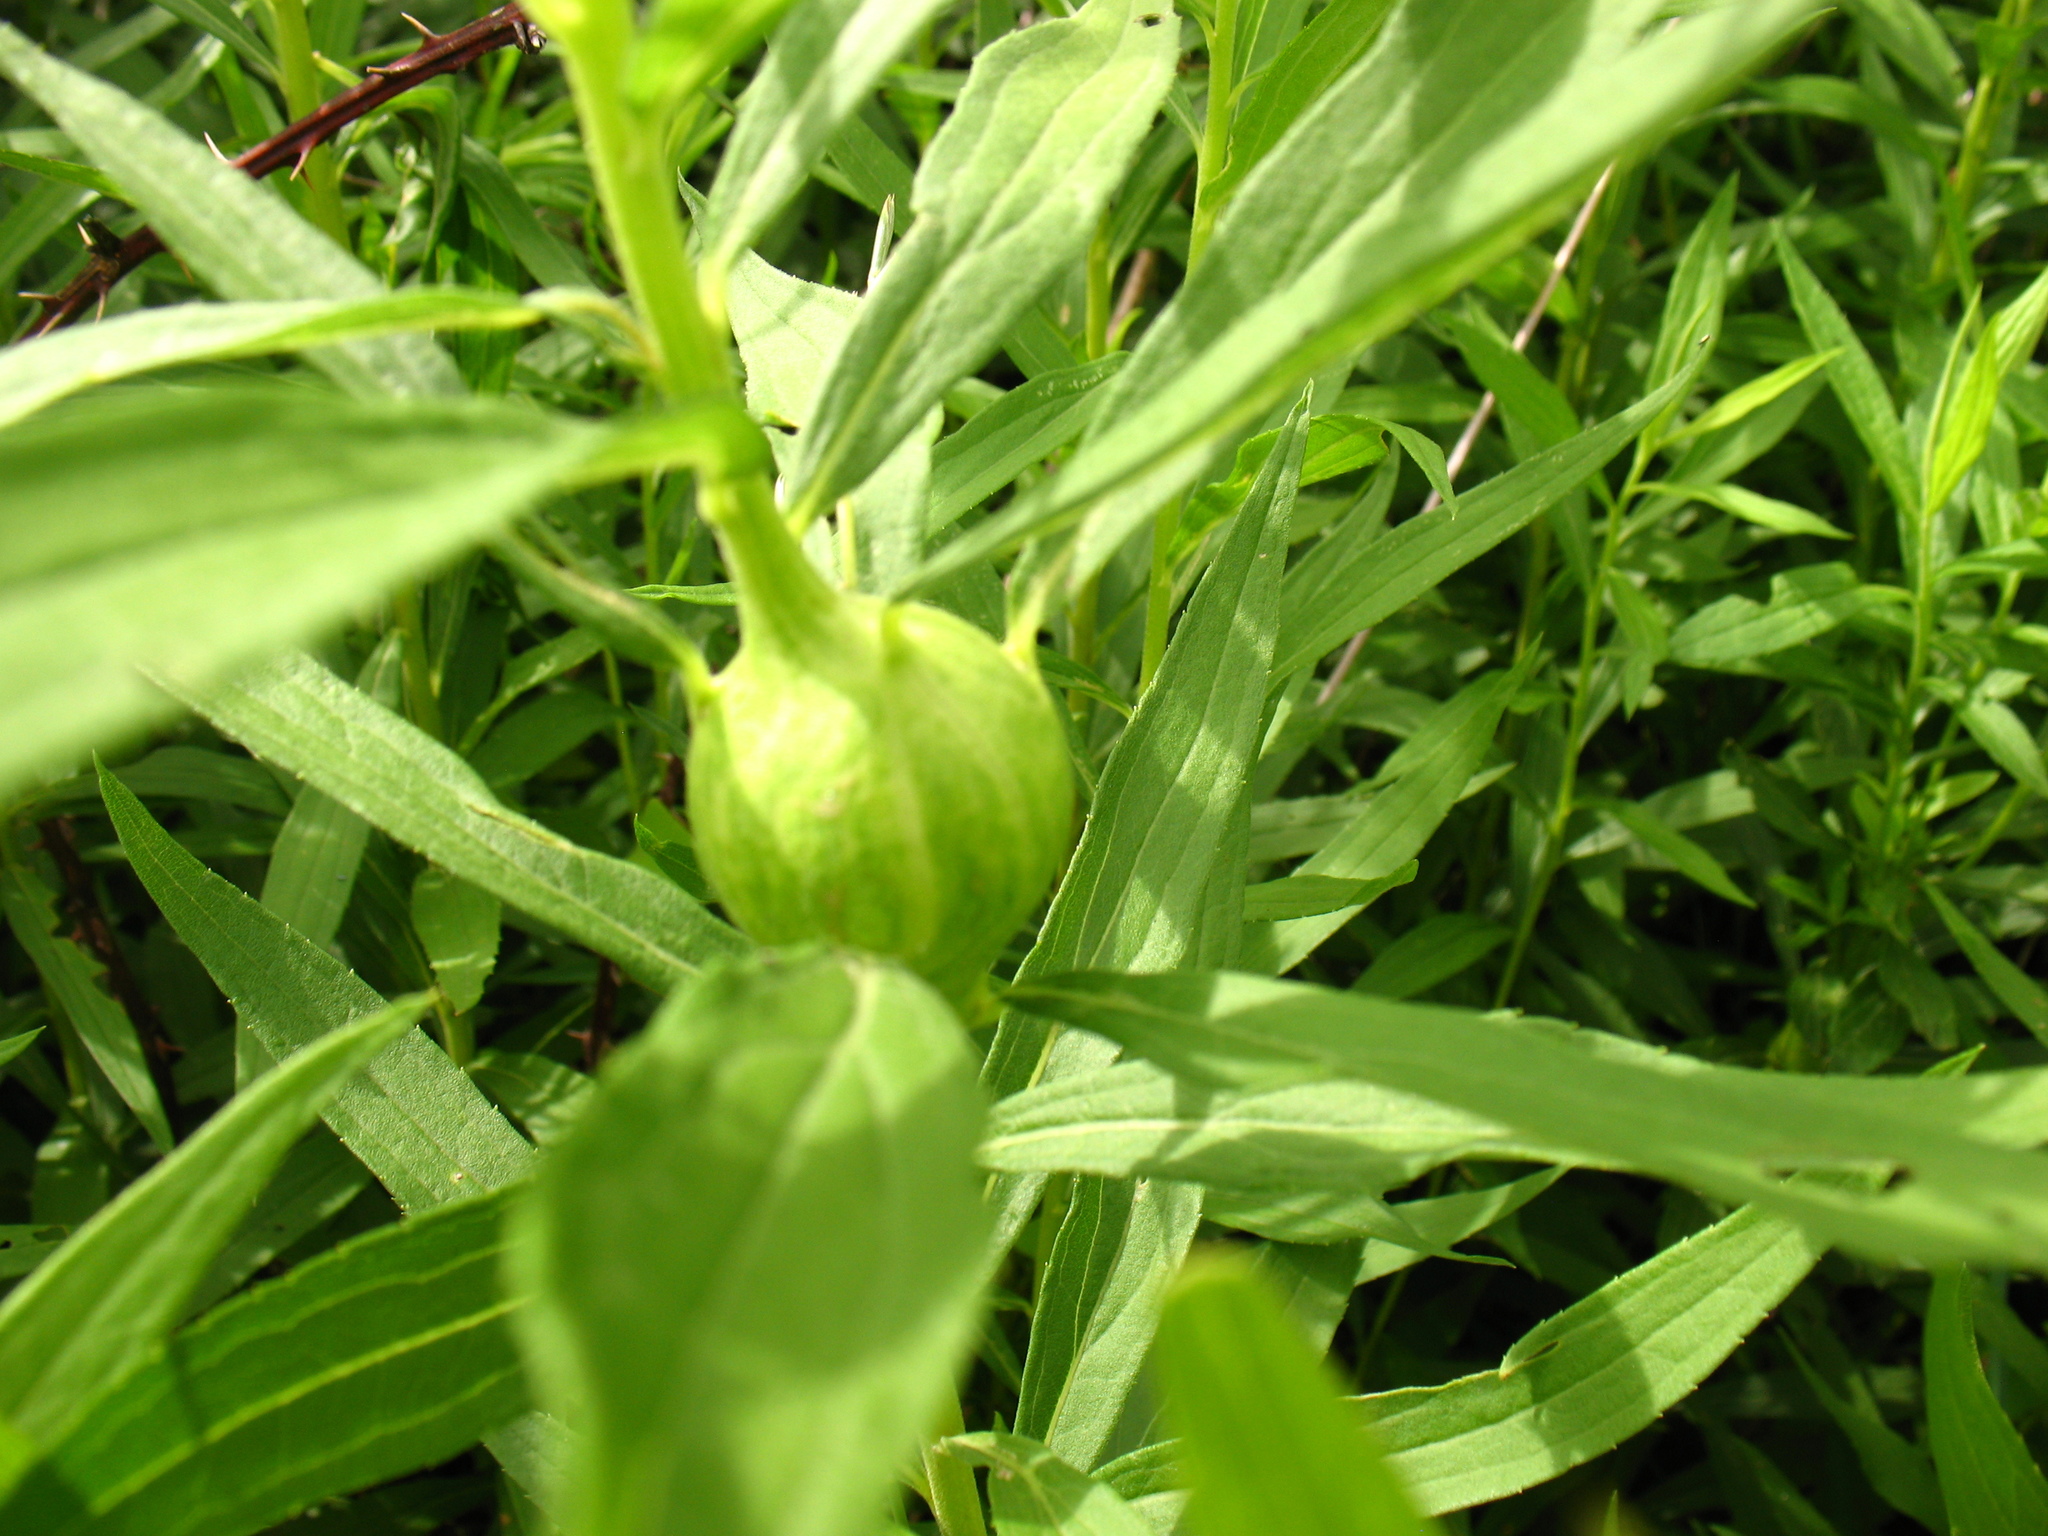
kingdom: Animalia
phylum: Arthropoda
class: Insecta
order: Diptera
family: Tephritidae
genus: Eurosta
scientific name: Eurosta solidaginis
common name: Goldenrod gall fly
